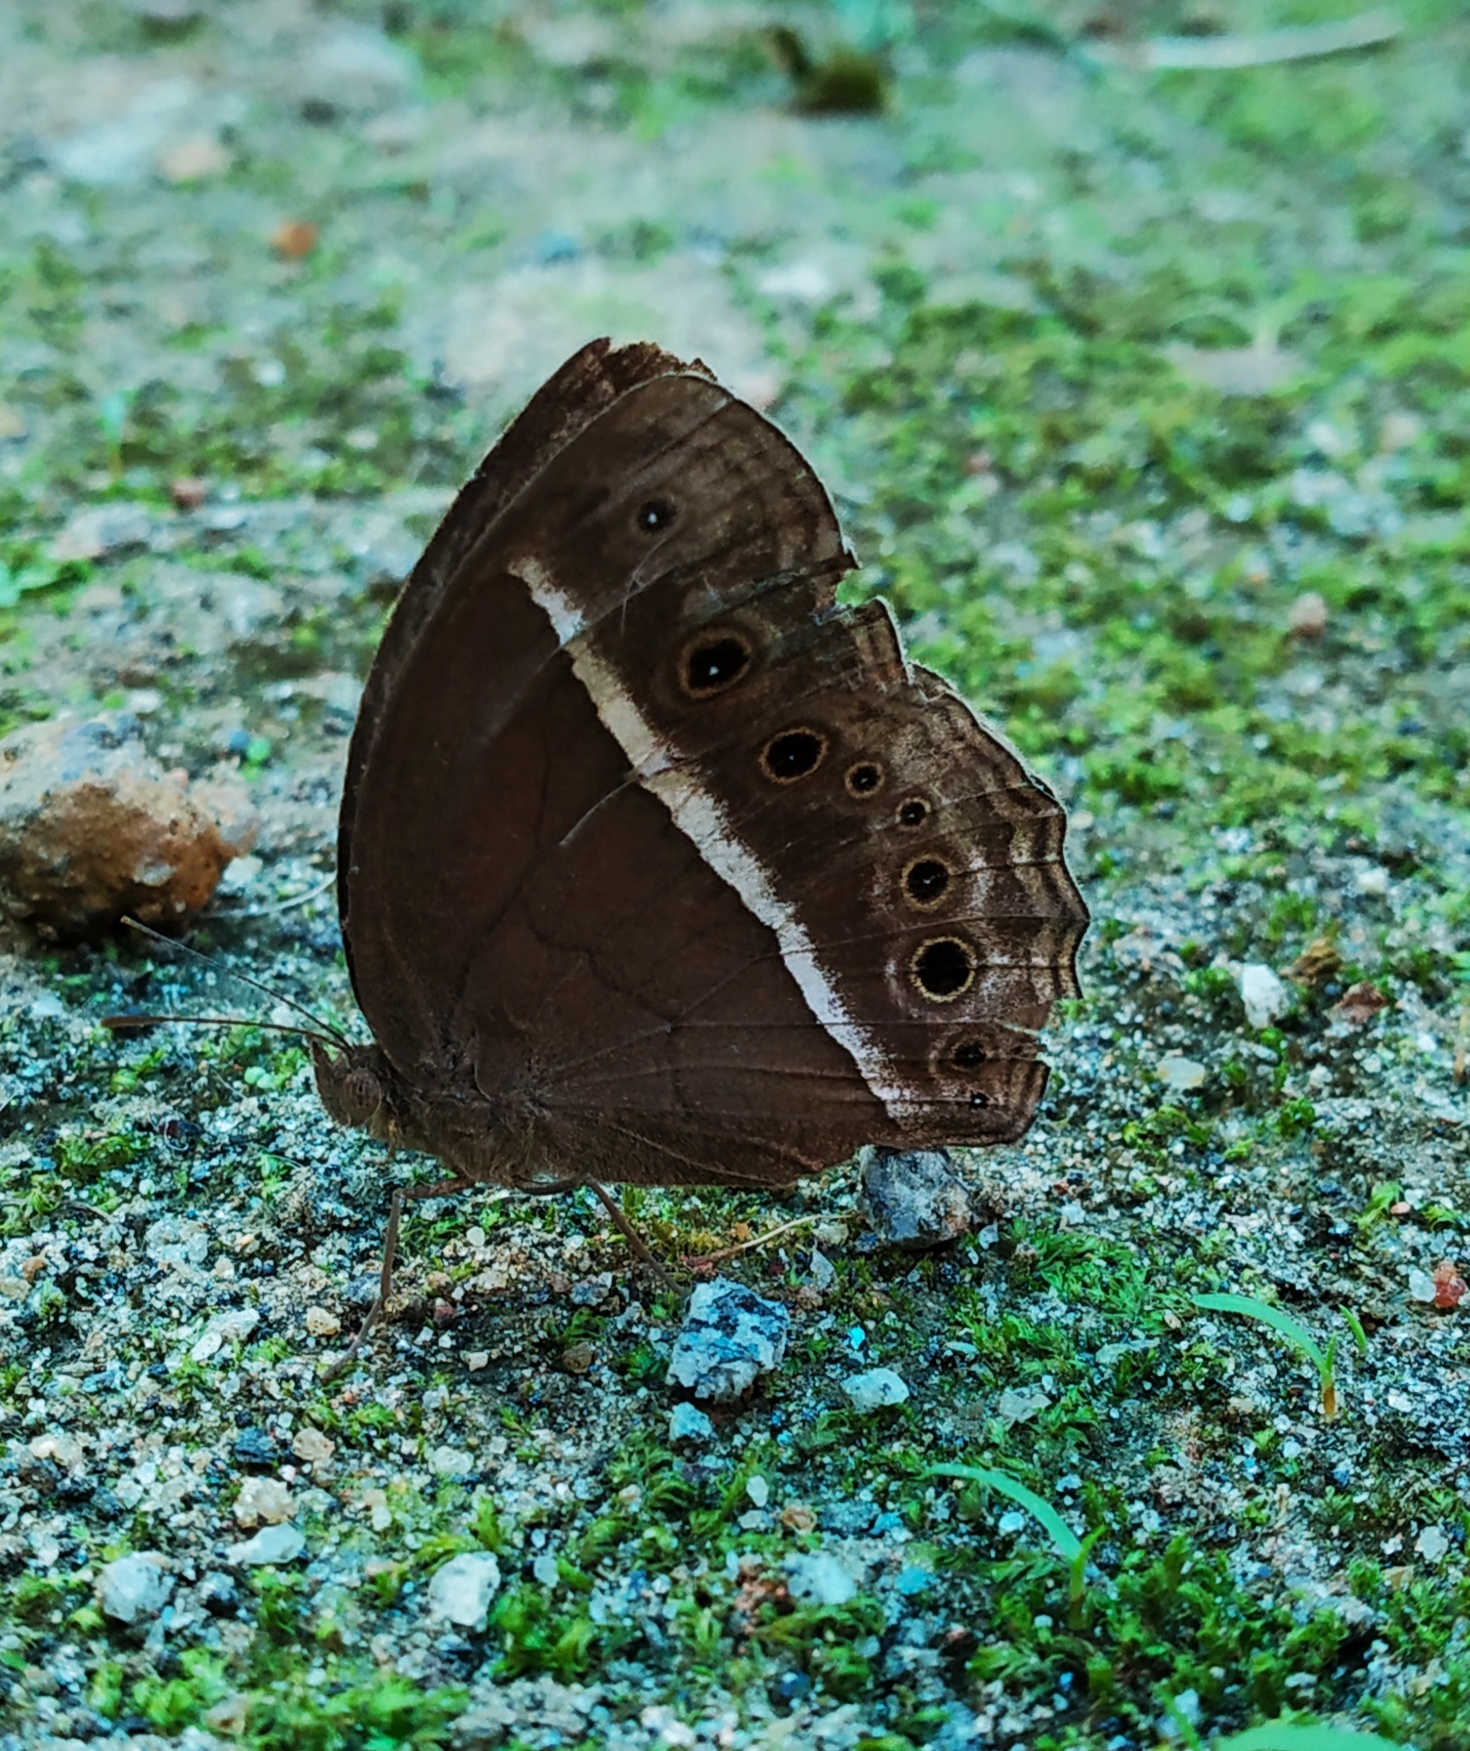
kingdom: Animalia
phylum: Arthropoda
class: Insecta
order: Lepidoptera
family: Nymphalidae
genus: Mycalesis
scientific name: Mycalesis mineus
